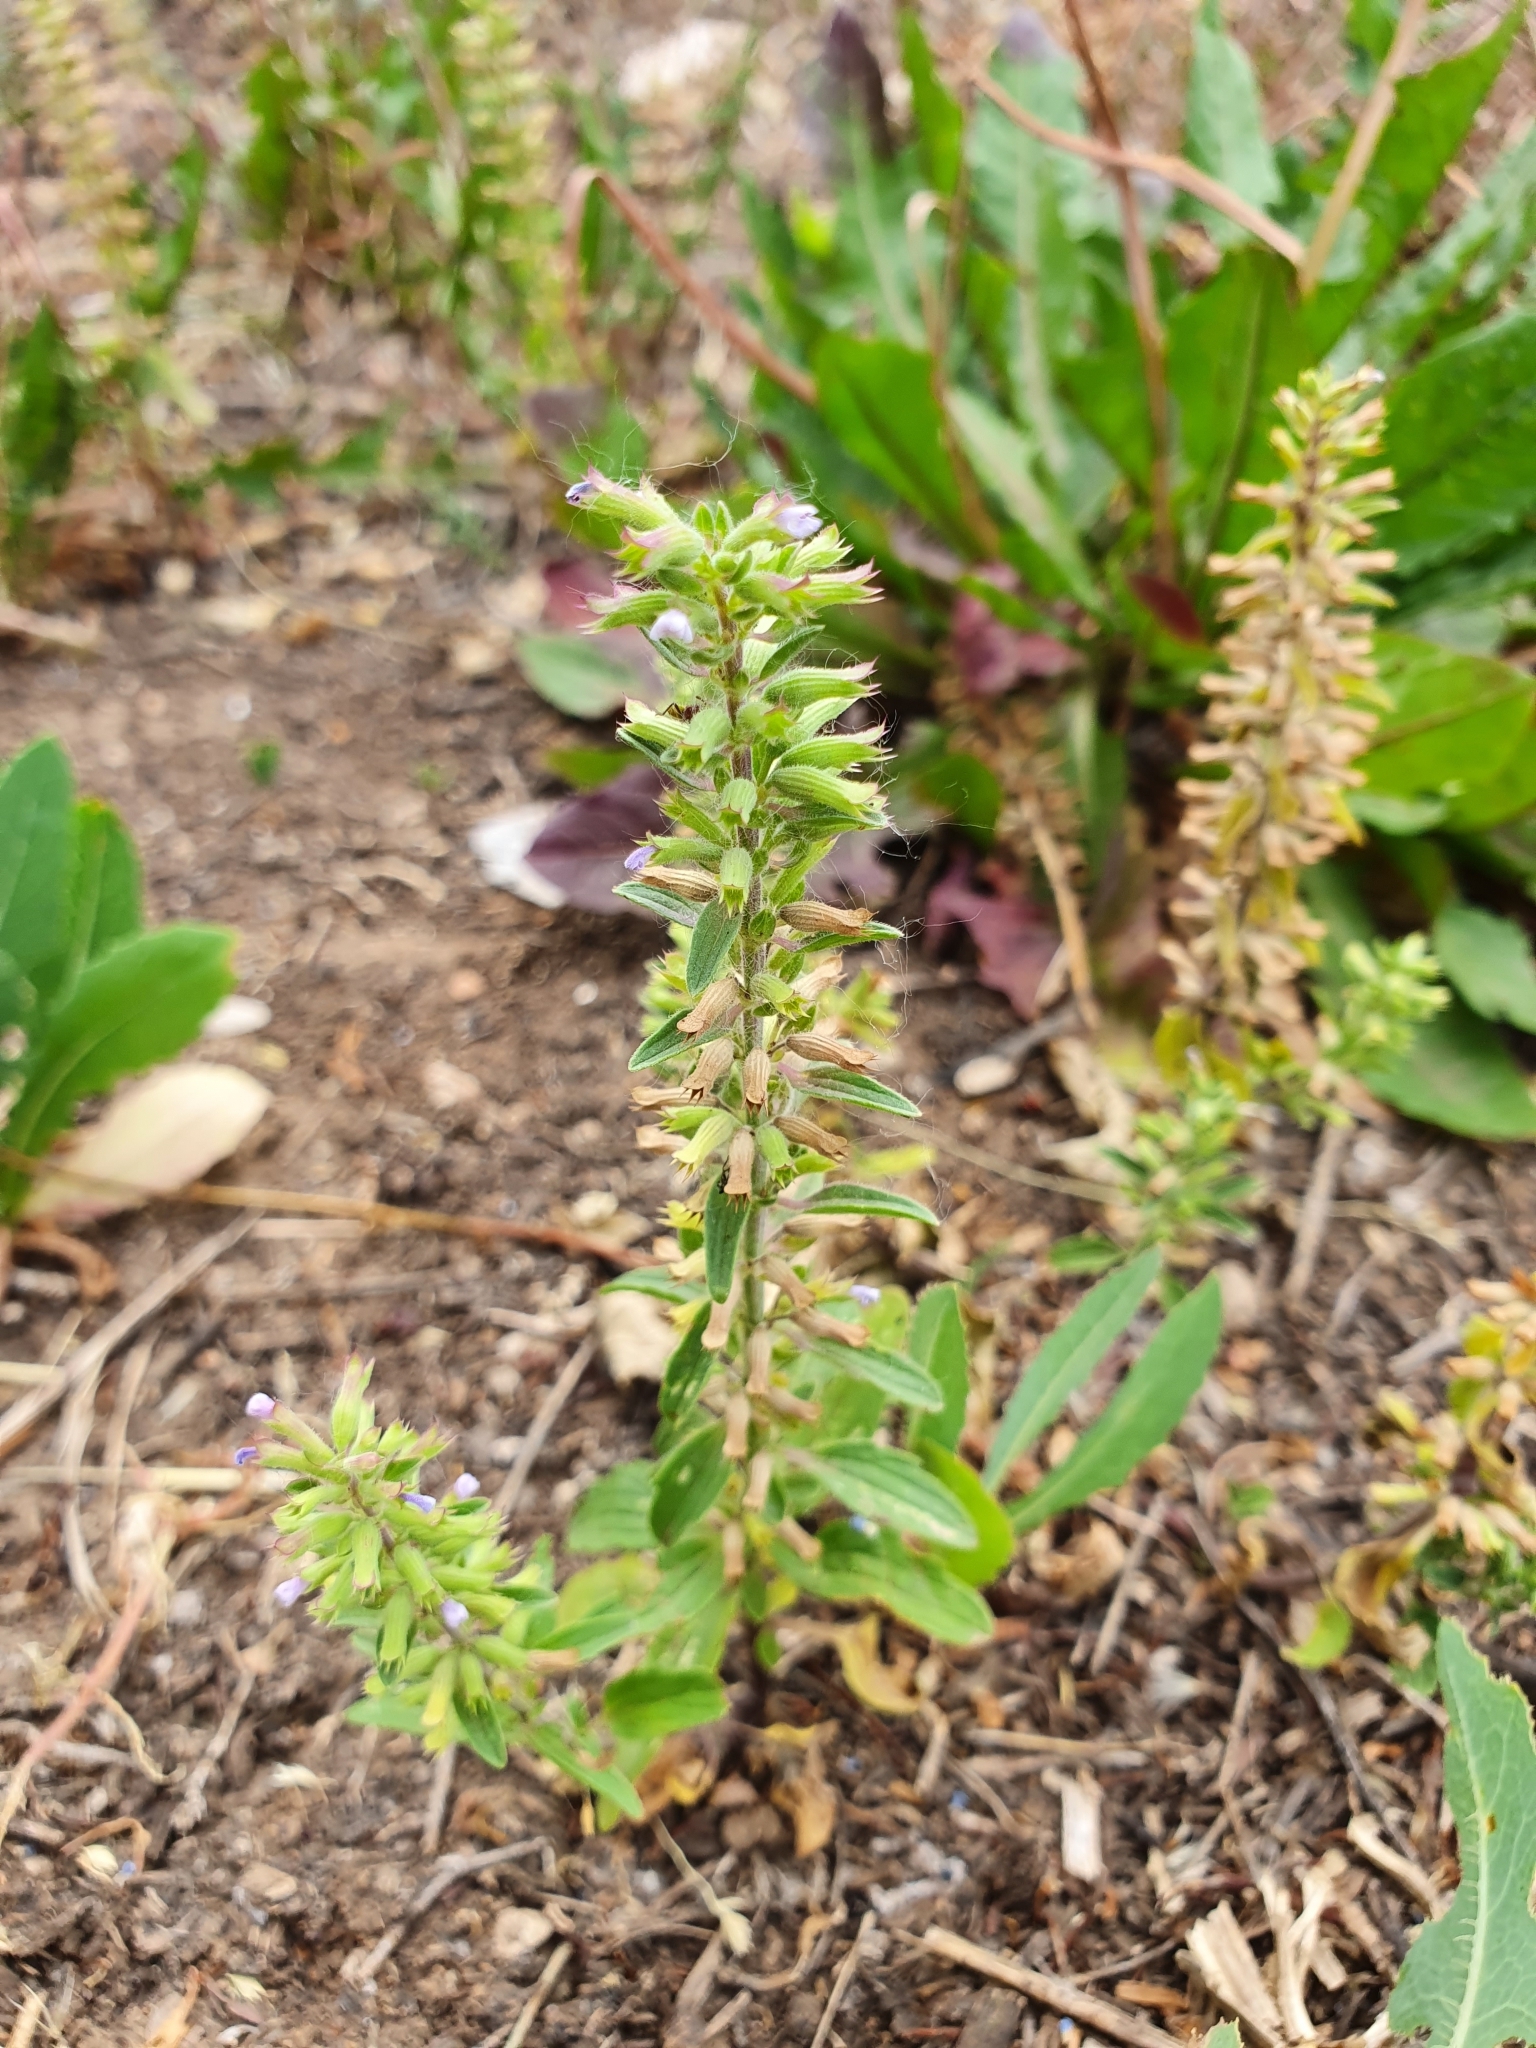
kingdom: Plantae
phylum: Tracheophyta
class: Magnoliopsida
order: Lamiales
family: Lamiaceae
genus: Dracocephalum
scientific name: Dracocephalum thymiflorum
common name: Thymeleaf dragonhead
